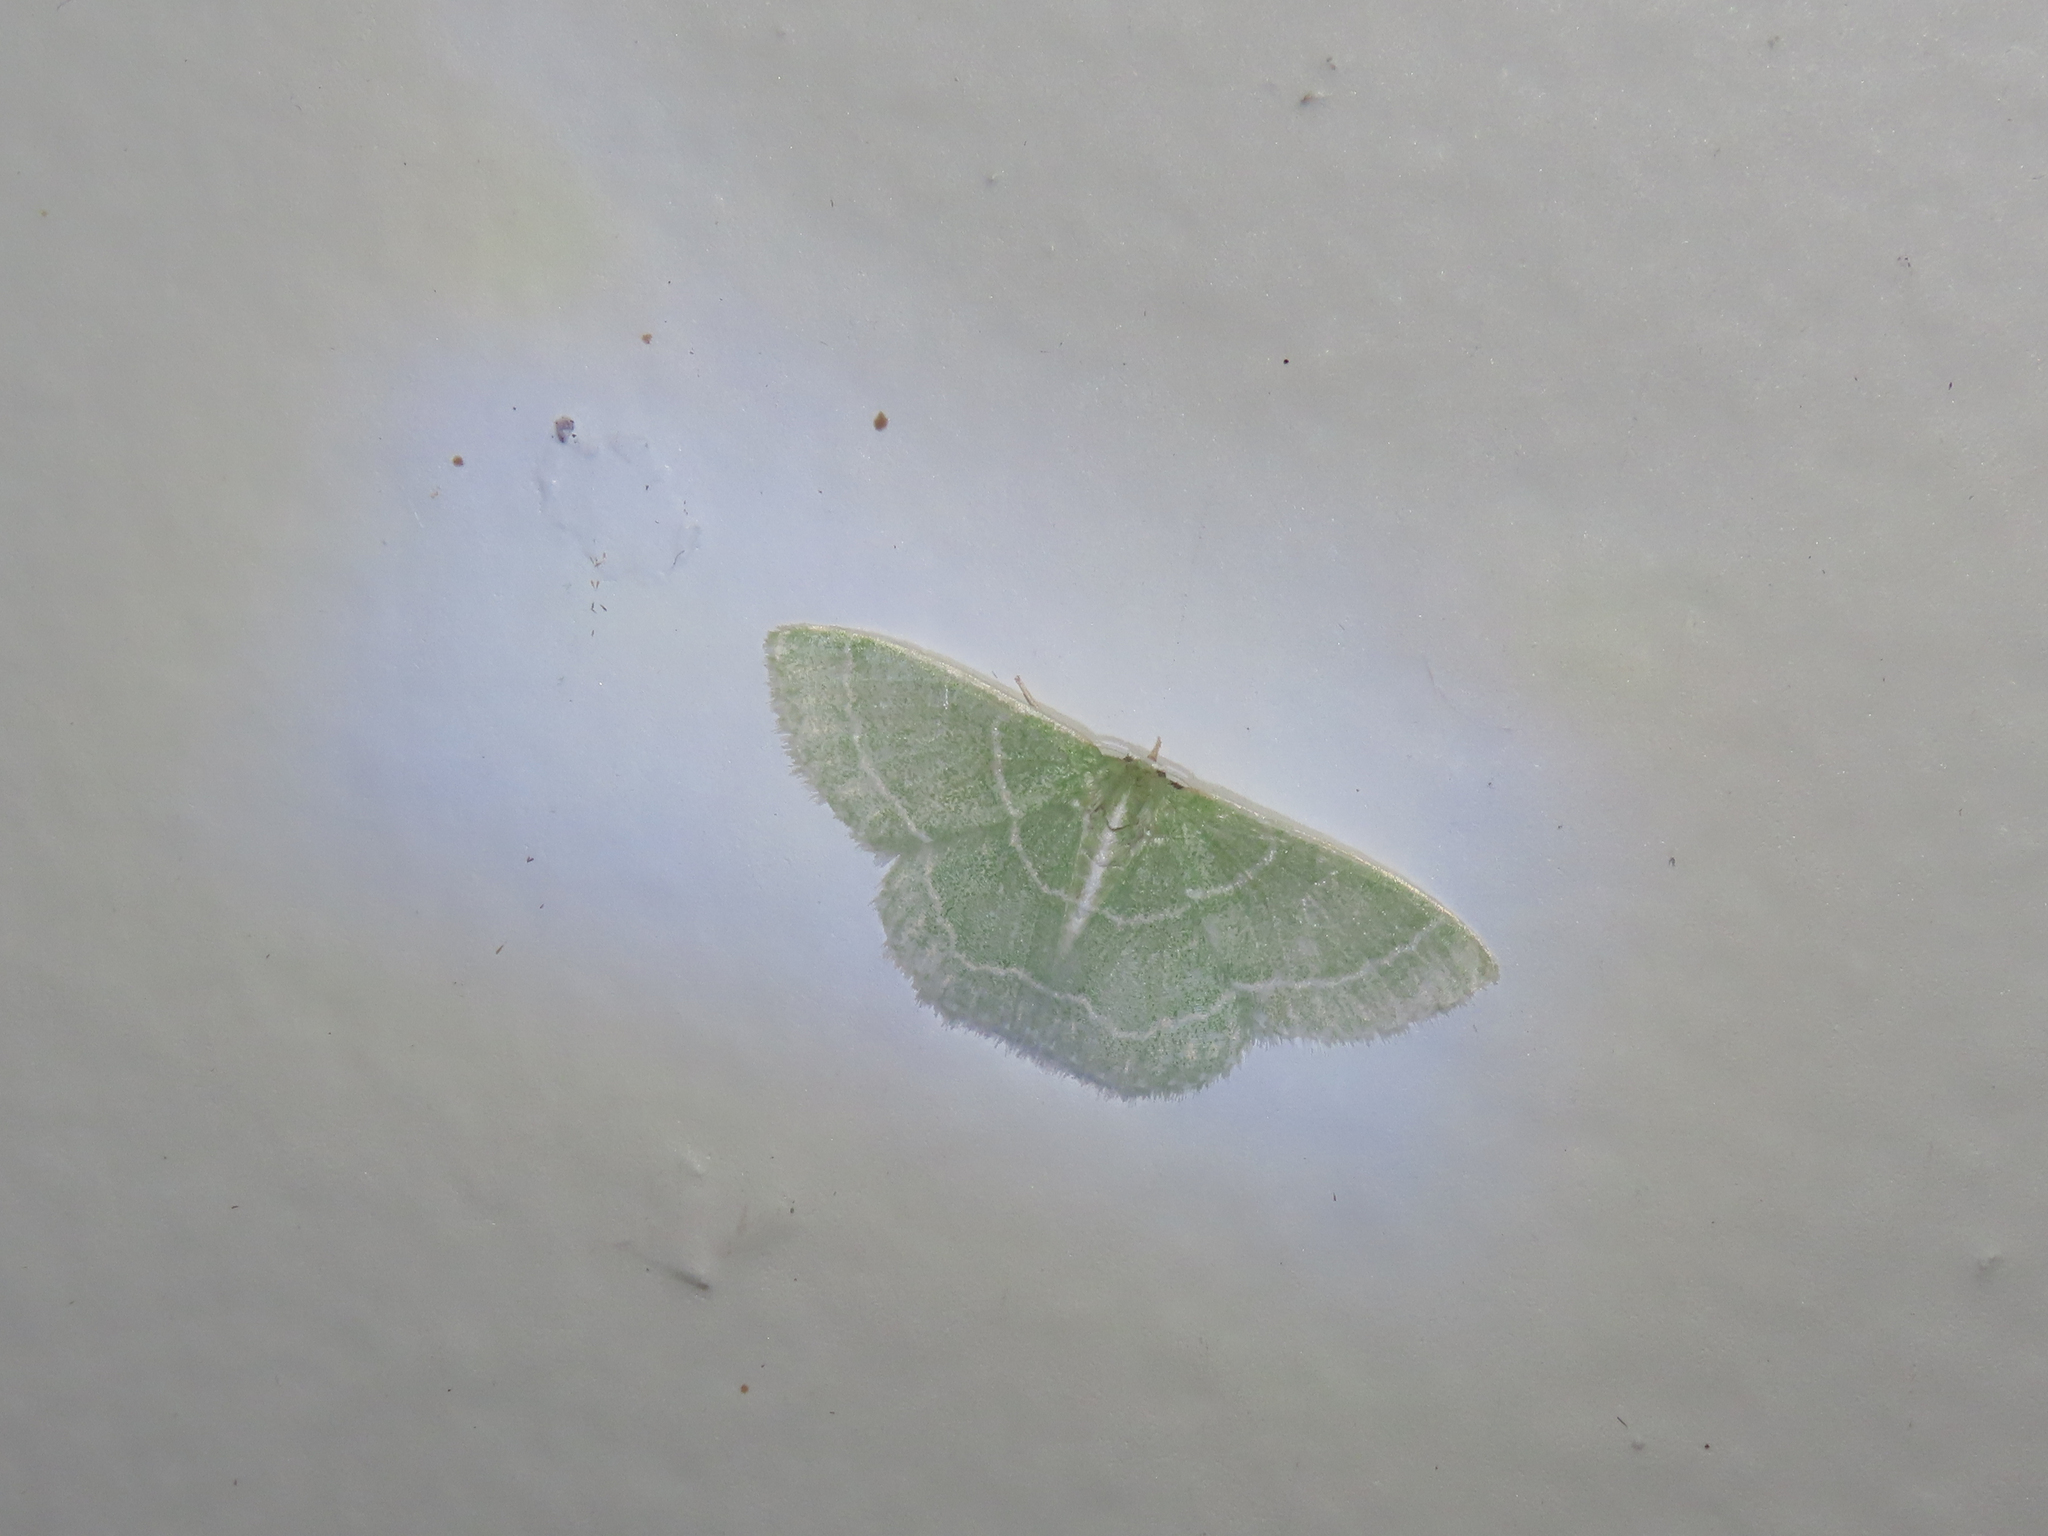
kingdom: Animalia
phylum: Arthropoda
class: Insecta
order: Lepidoptera
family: Geometridae
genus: Synchlora
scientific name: Synchlora aerata
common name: Wavy-lined emerald
